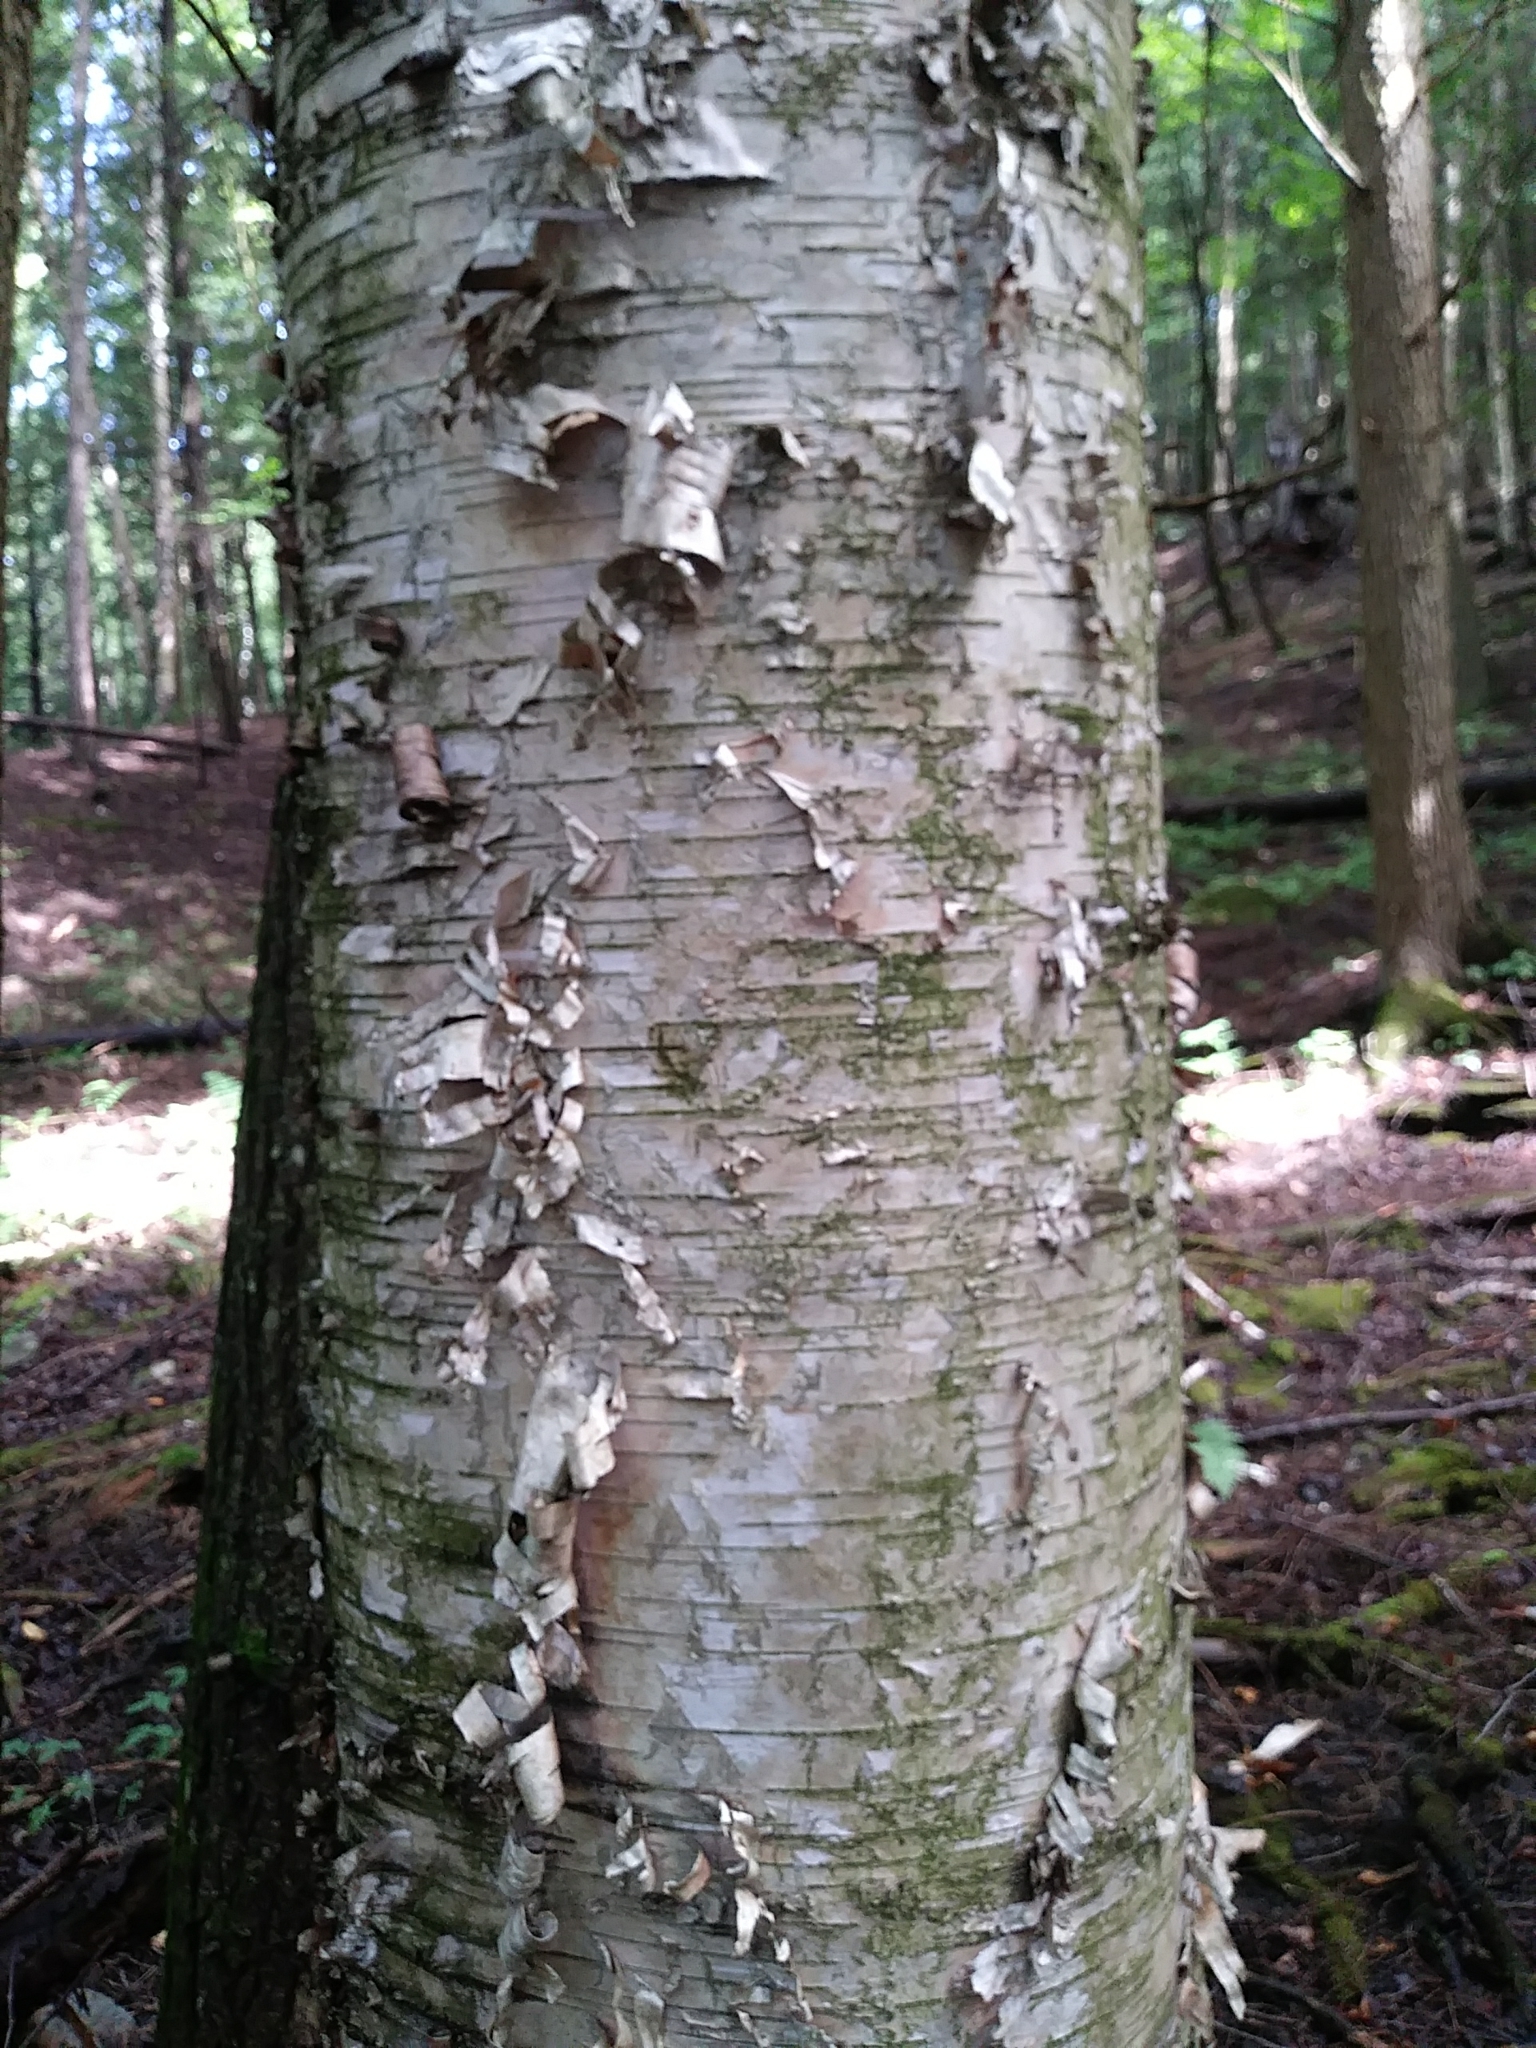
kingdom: Plantae
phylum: Tracheophyta
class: Magnoliopsida
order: Fagales
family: Betulaceae
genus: Betula
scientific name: Betula alleghaniensis
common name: Yellow birch
